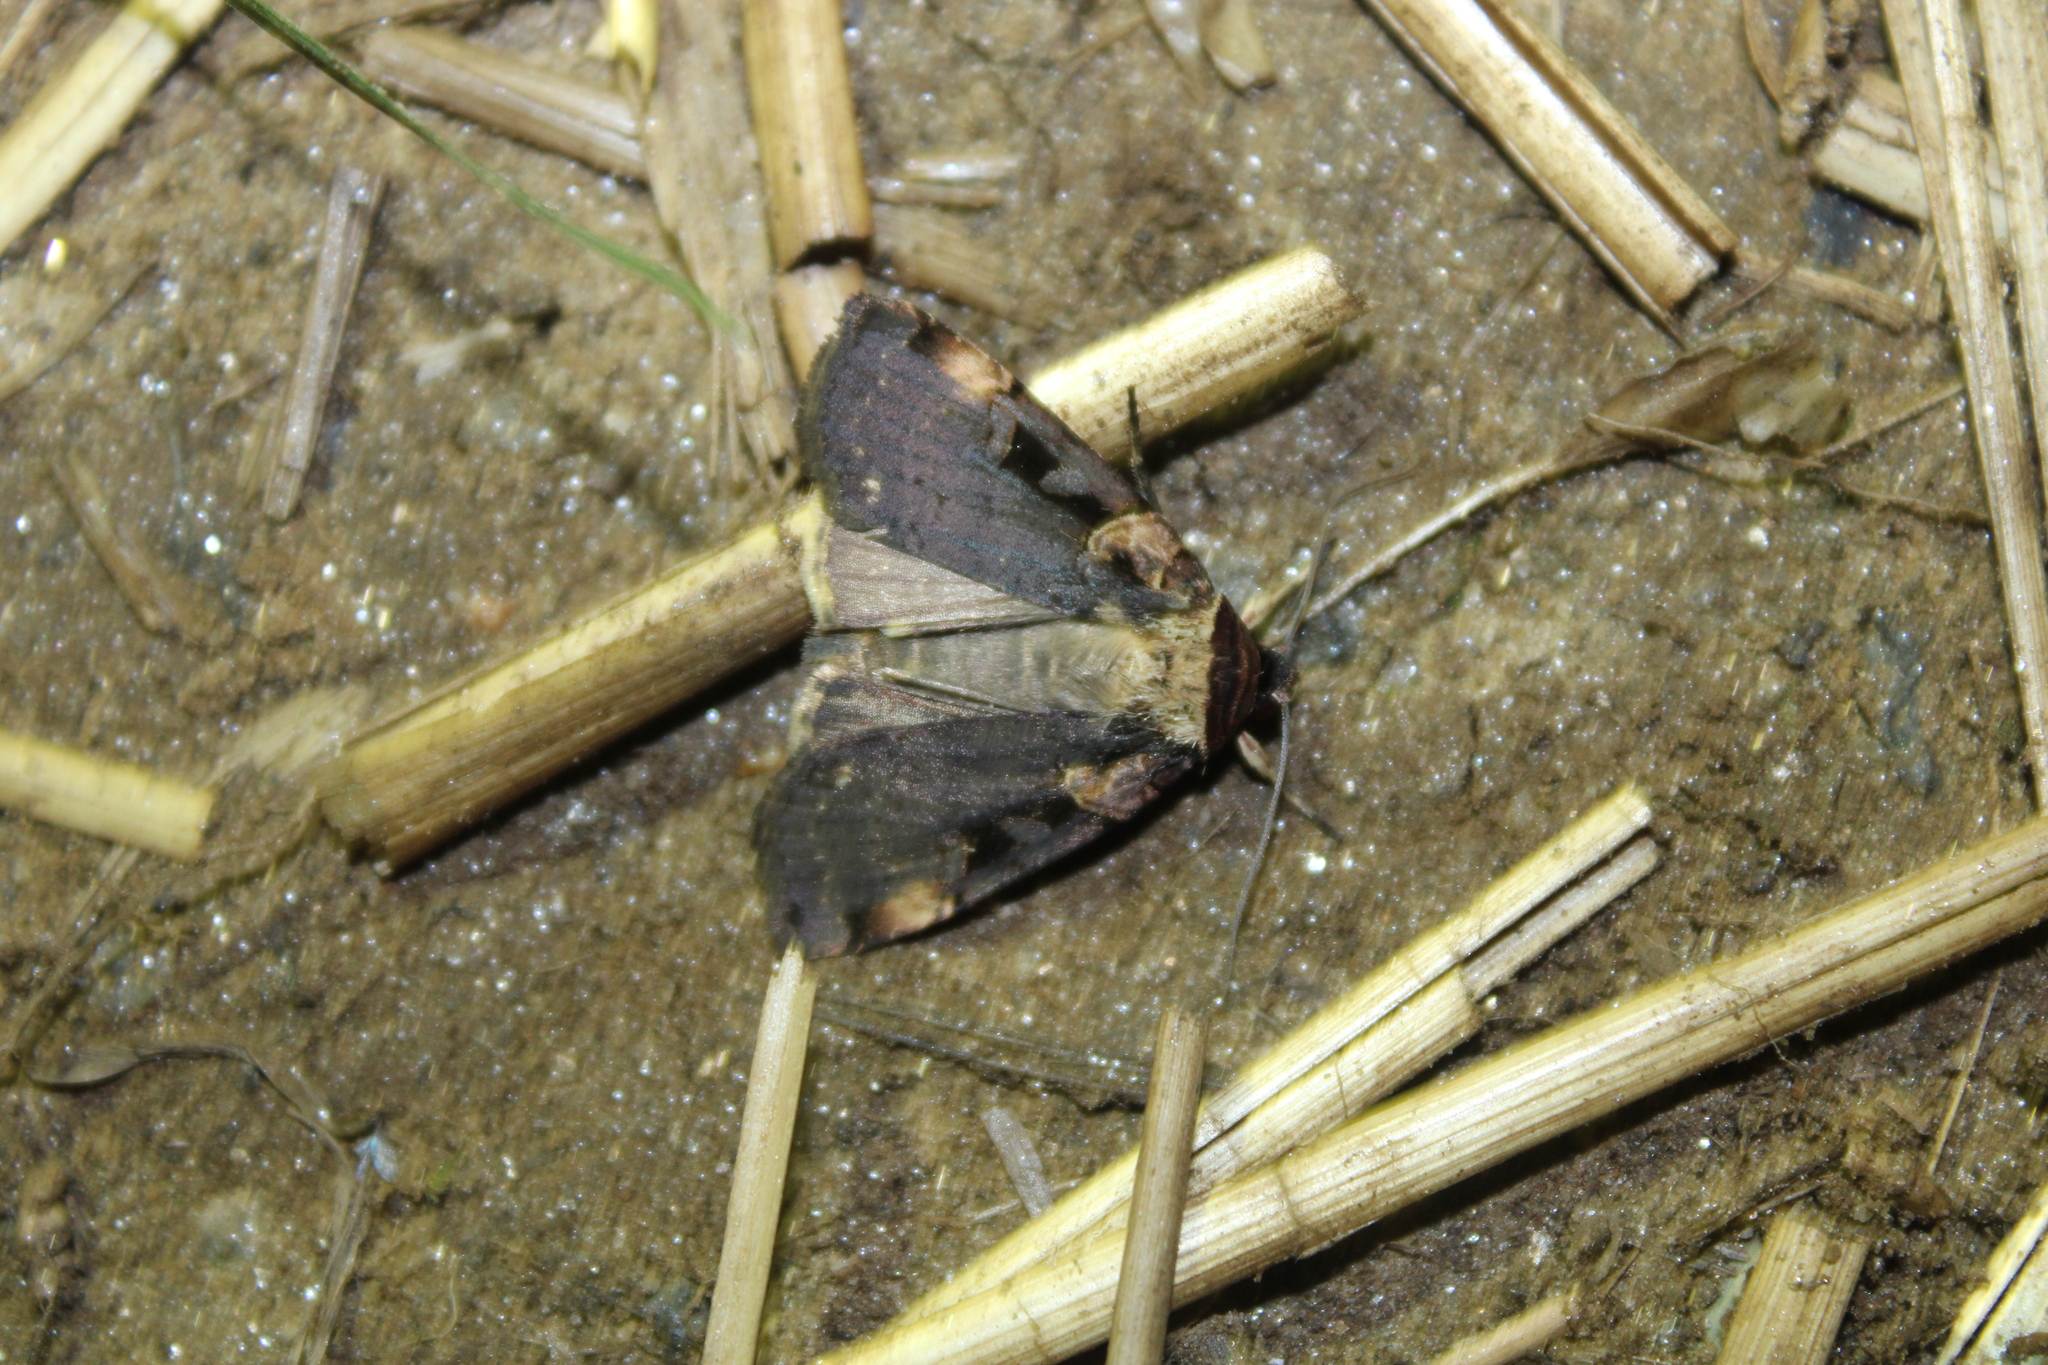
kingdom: Animalia
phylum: Arthropoda
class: Insecta
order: Lepidoptera
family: Noctuidae
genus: Pseudohermonassa
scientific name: Pseudohermonassa bicarnea
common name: Pink spotted dart
